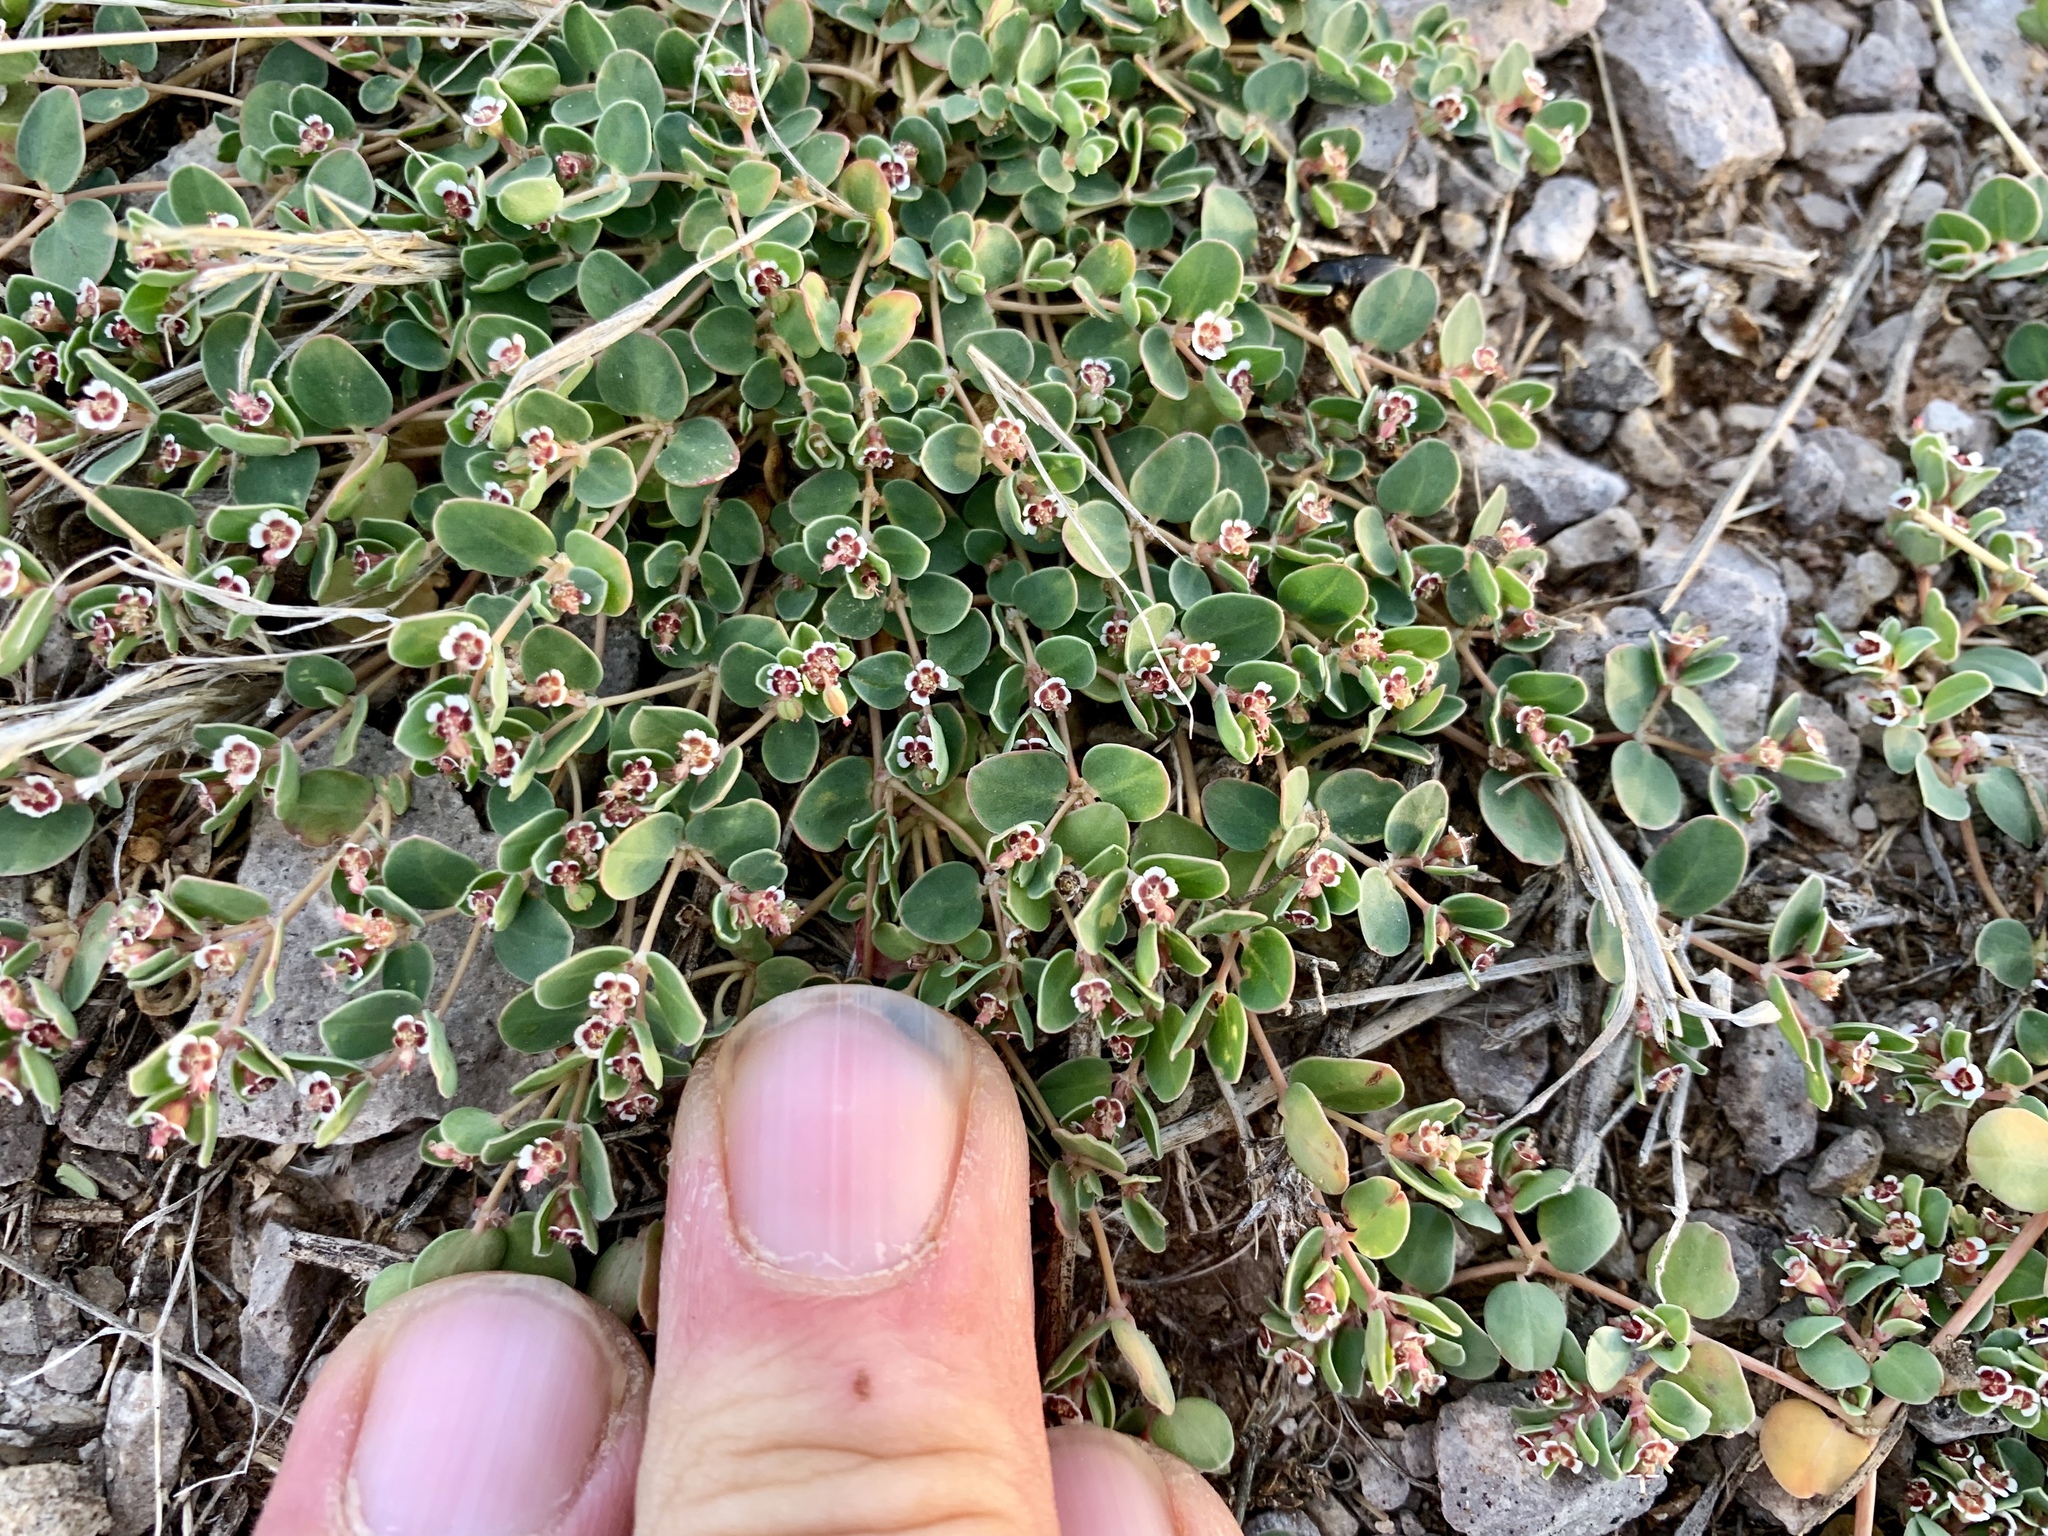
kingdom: Plantae
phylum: Tracheophyta
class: Magnoliopsida
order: Malpighiales
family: Euphorbiaceae
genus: Euphorbia
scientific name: Euphorbia albomarginata
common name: Whitemargin sandmat
